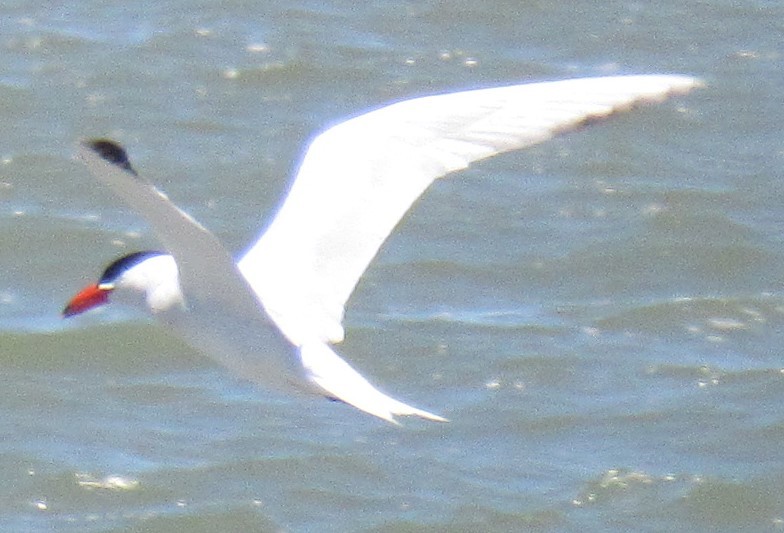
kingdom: Animalia
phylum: Chordata
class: Aves
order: Charadriiformes
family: Laridae
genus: Hydroprogne
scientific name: Hydroprogne caspia
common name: Caspian tern
